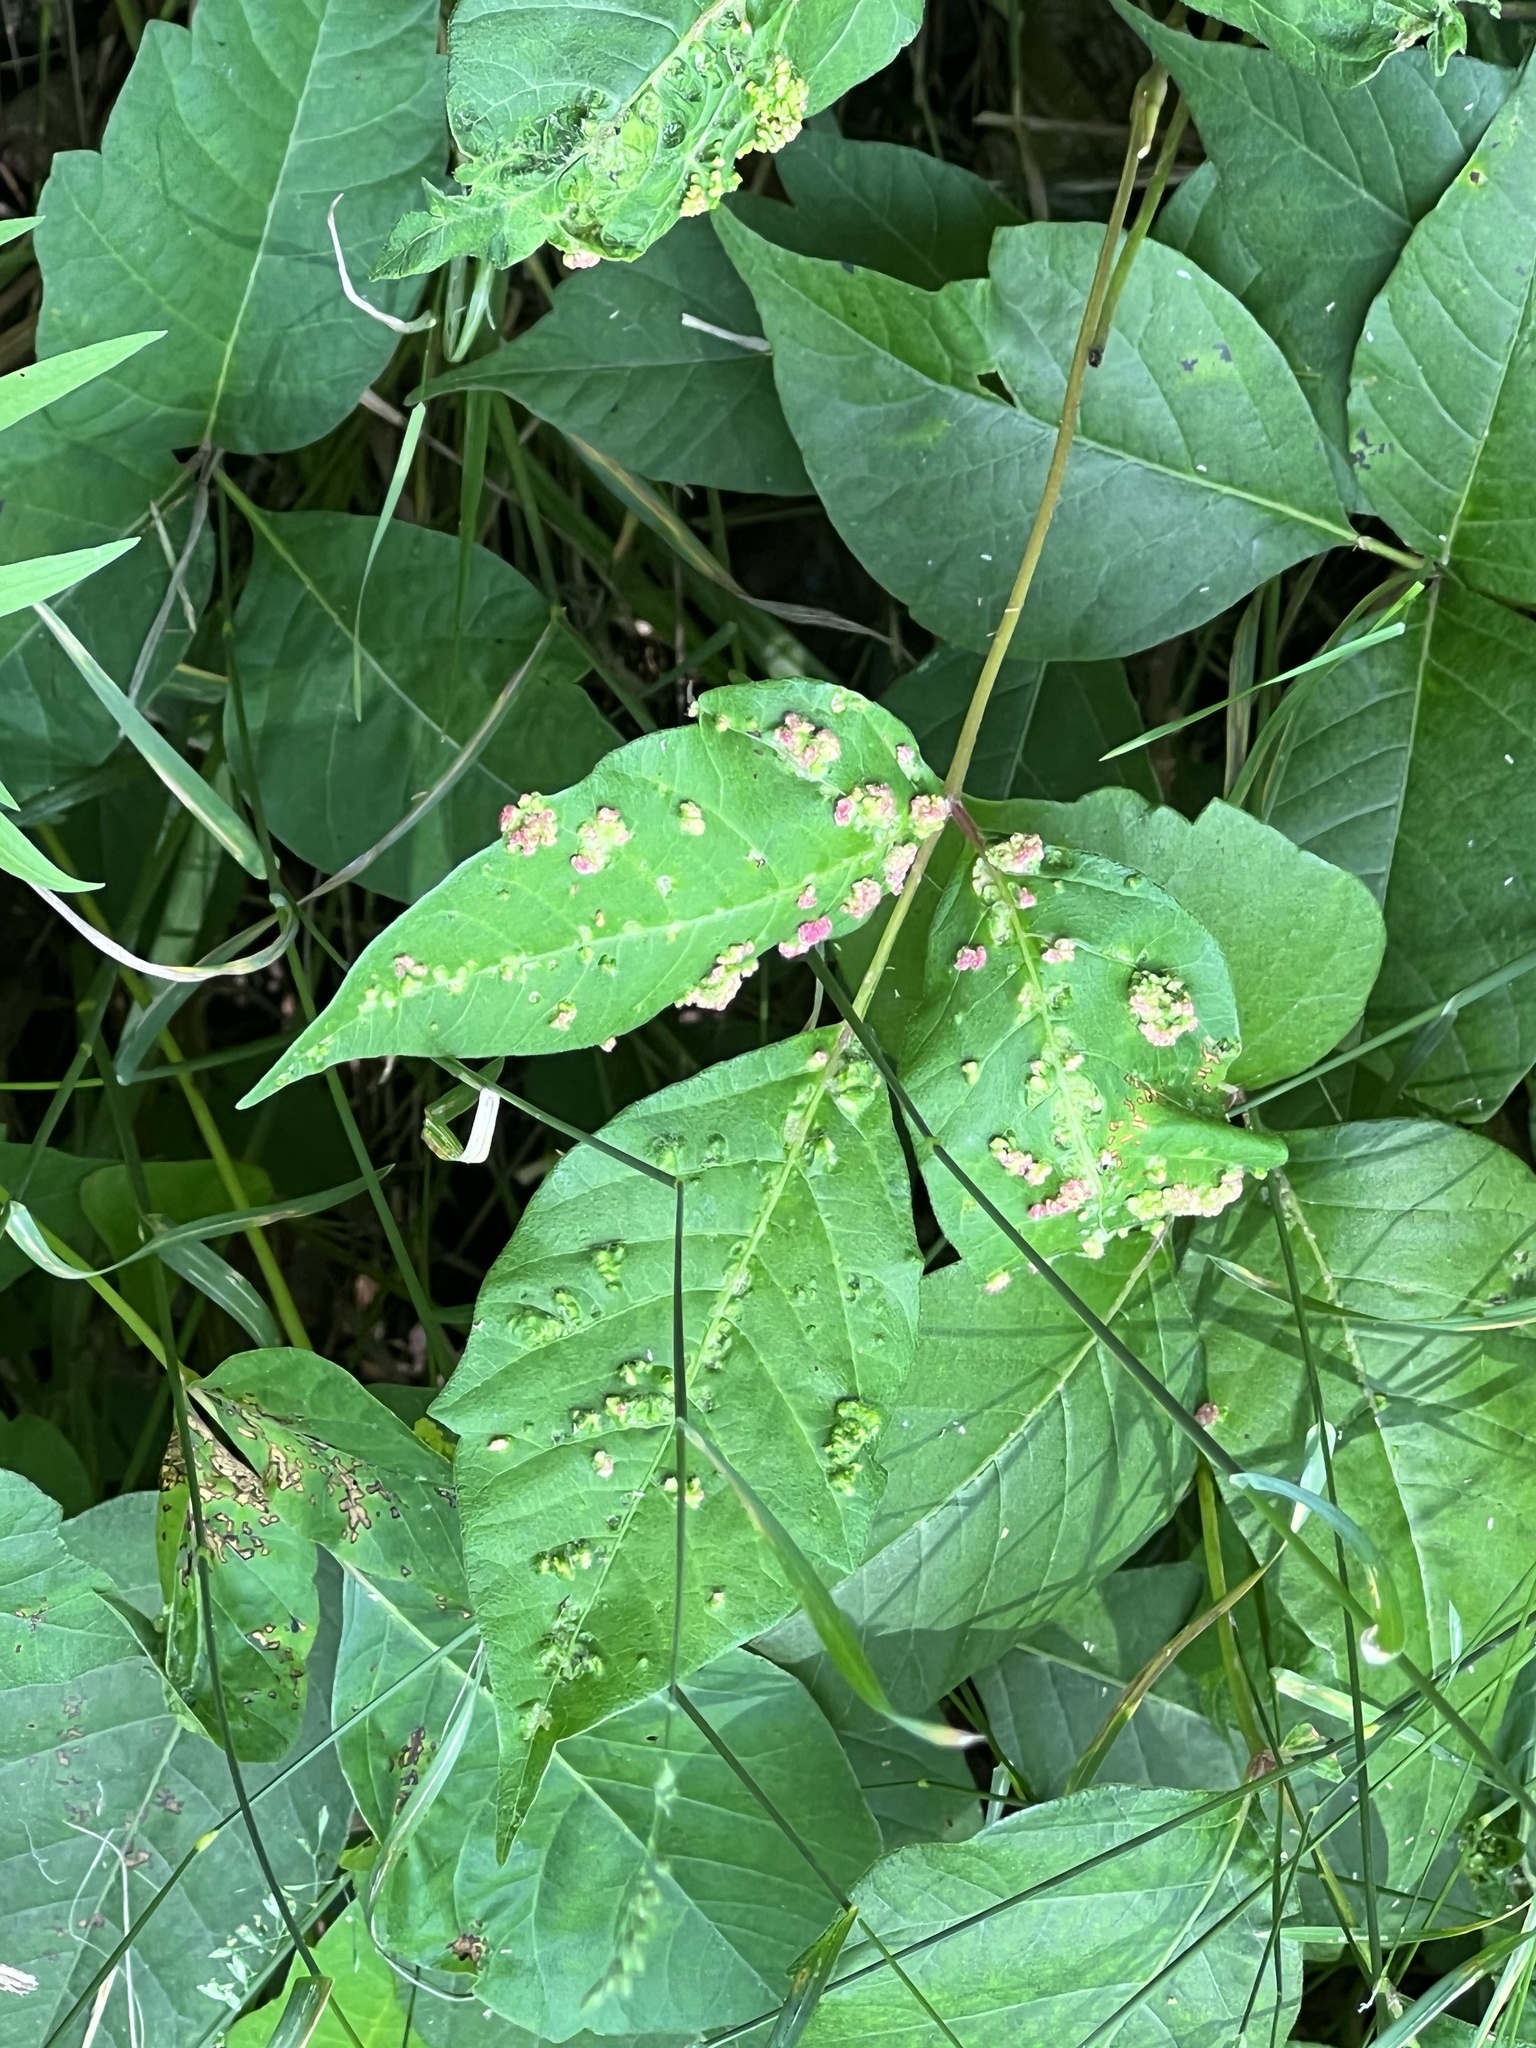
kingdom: Animalia
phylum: Arthropoda
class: Arachnida
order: Trombidiformes
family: Eriophyidae
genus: Aculops
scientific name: Aculops
